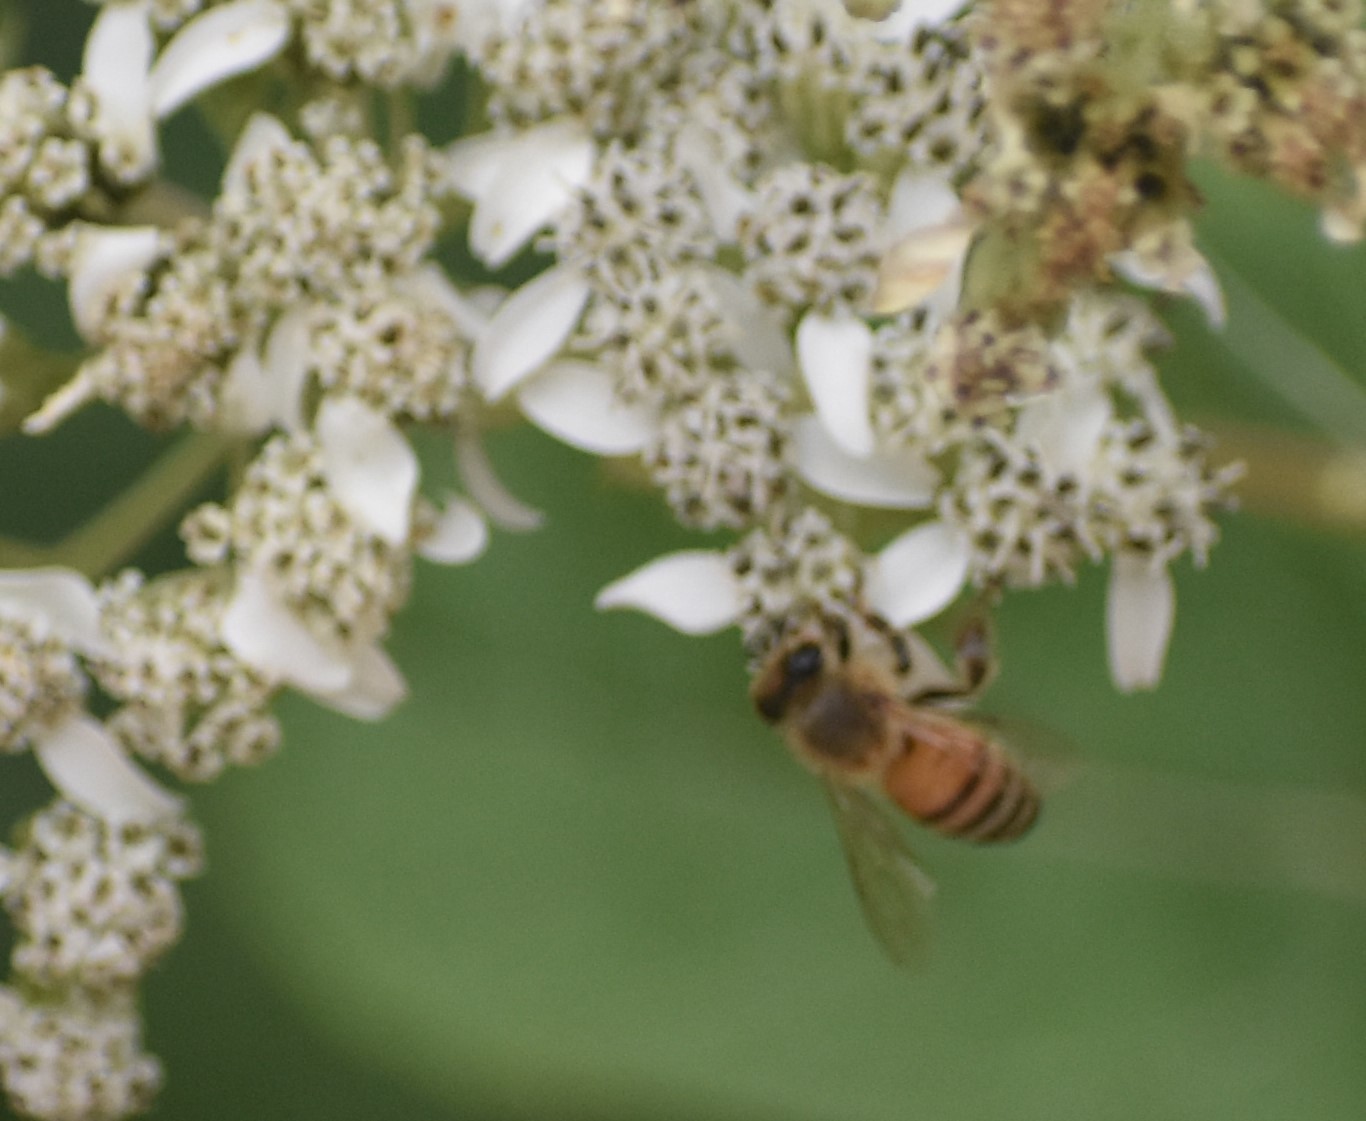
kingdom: Animalia
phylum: Arthropoda
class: Insecta
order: Hymenoptera
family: Apidae
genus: Apis
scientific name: Apis mellifera
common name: Honey bee
